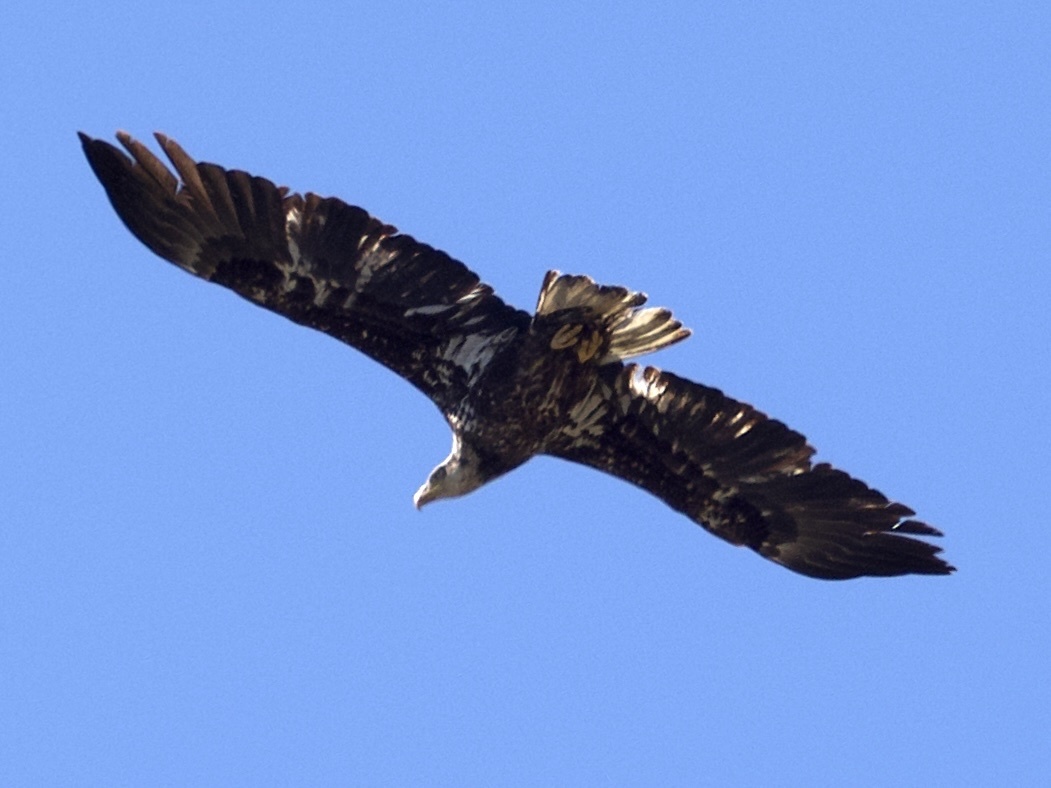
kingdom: Animalia
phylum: Chordata
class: Aves
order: Accipitriformes
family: Accipitridae
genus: Haliaeetus
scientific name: Haliaeetus leucocephalus
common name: Bald eagle
